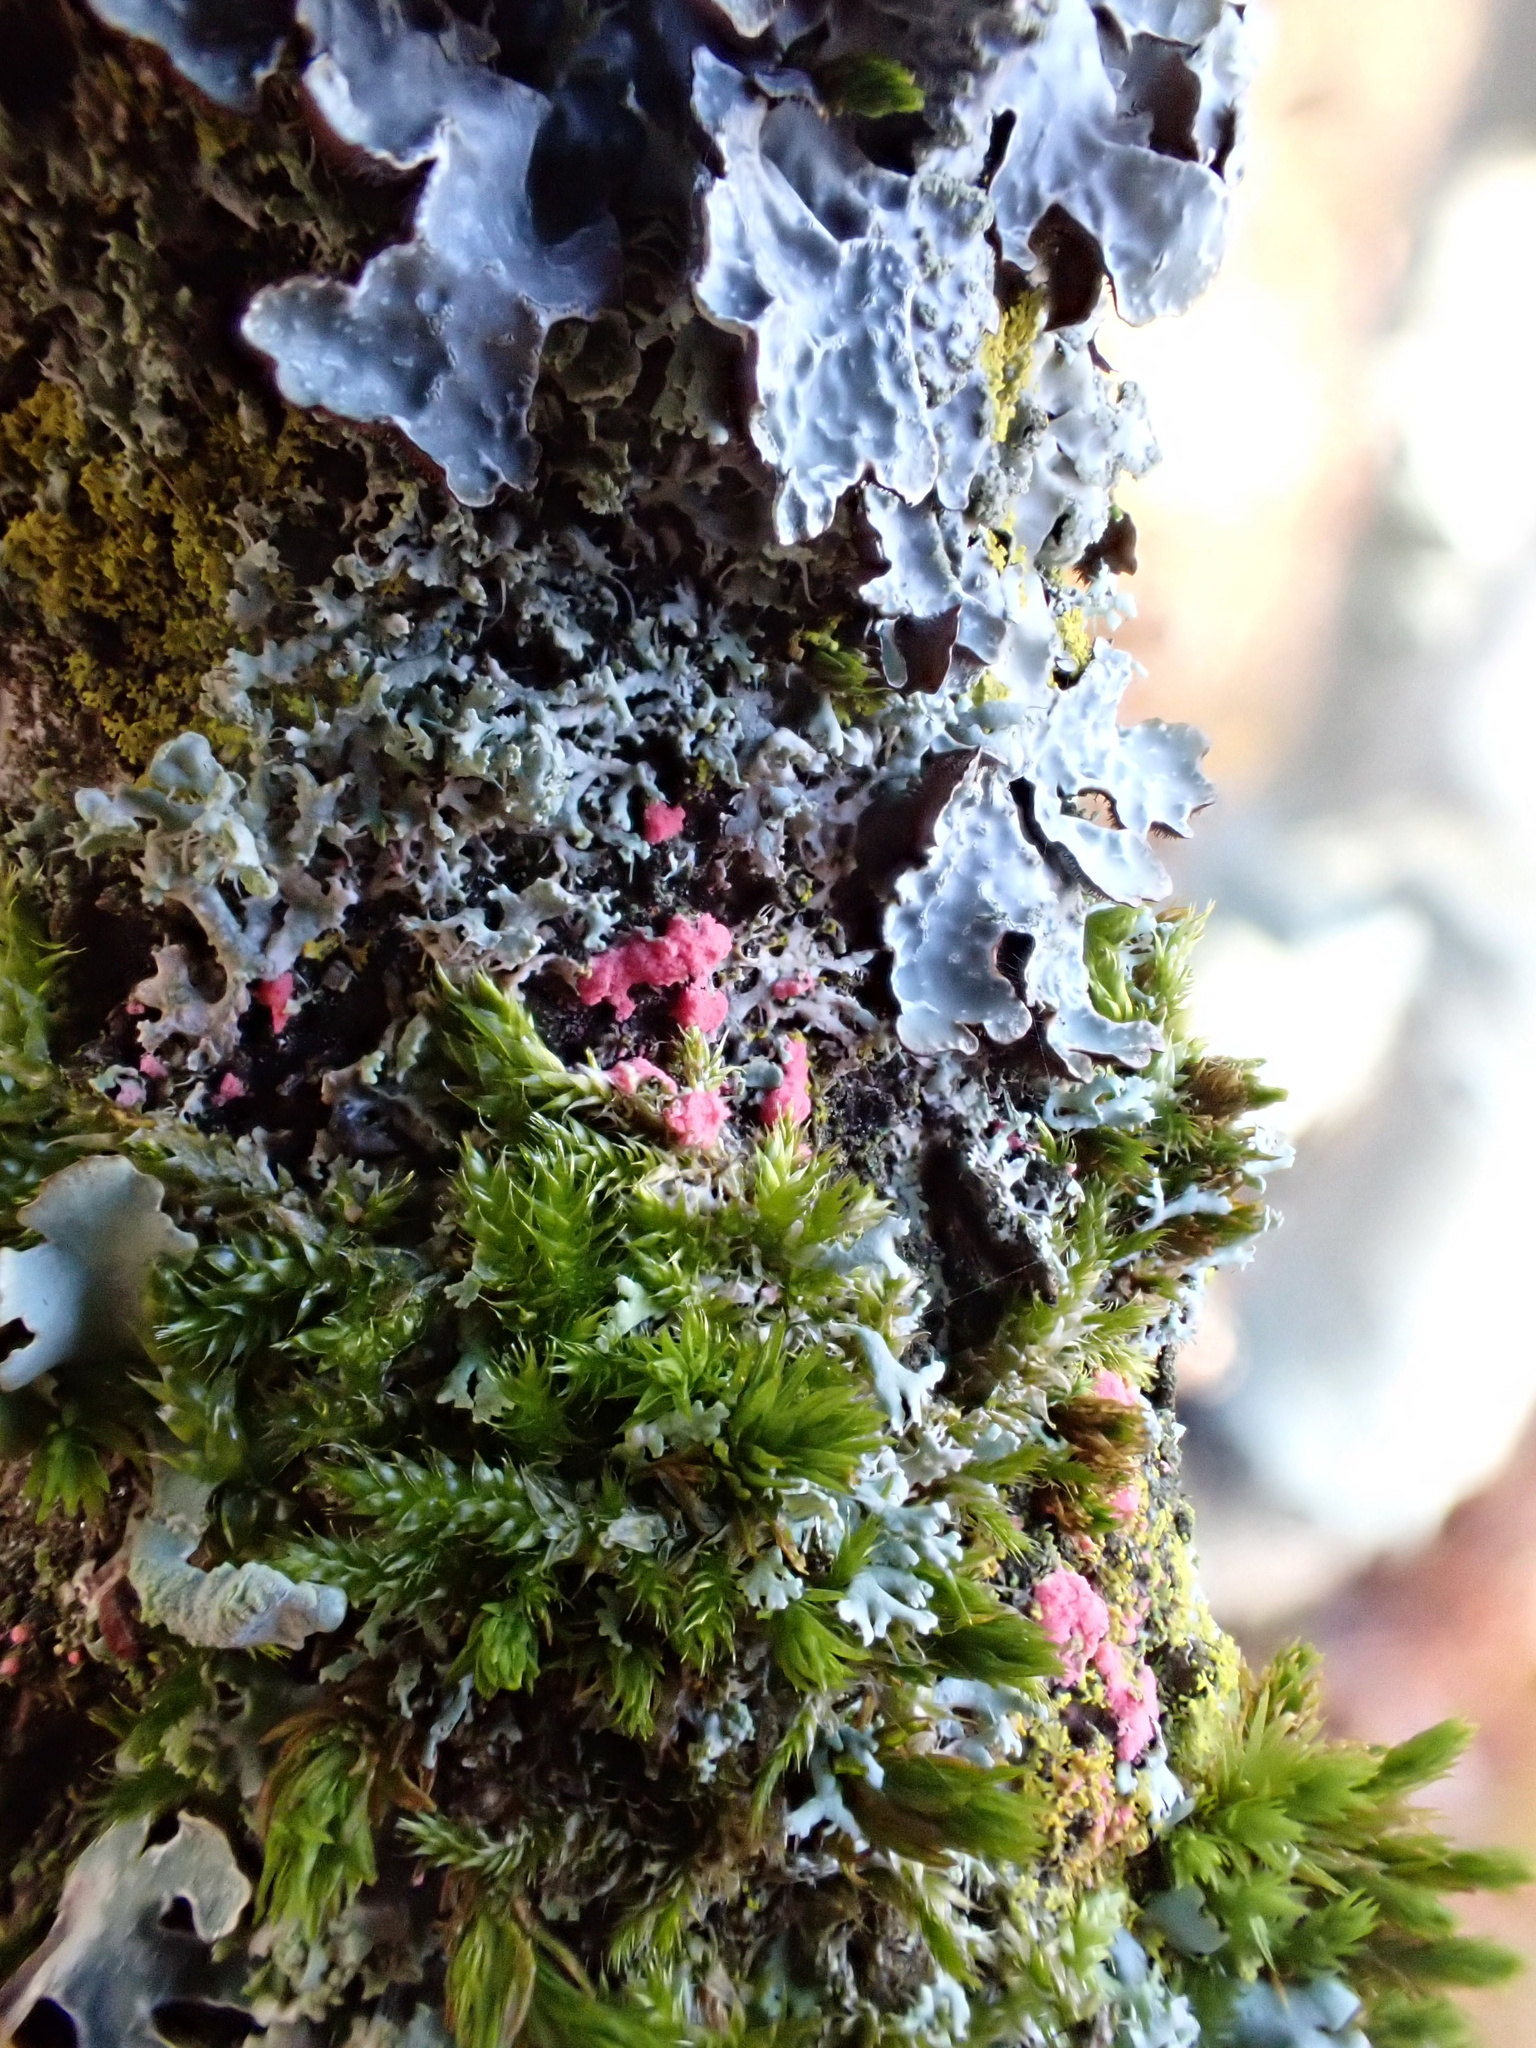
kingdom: Fungi
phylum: Ascomycota
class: Sordariomycetes
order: Hypocreales
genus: Illosporiopsis
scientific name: Illosporiopsis christiansenii
